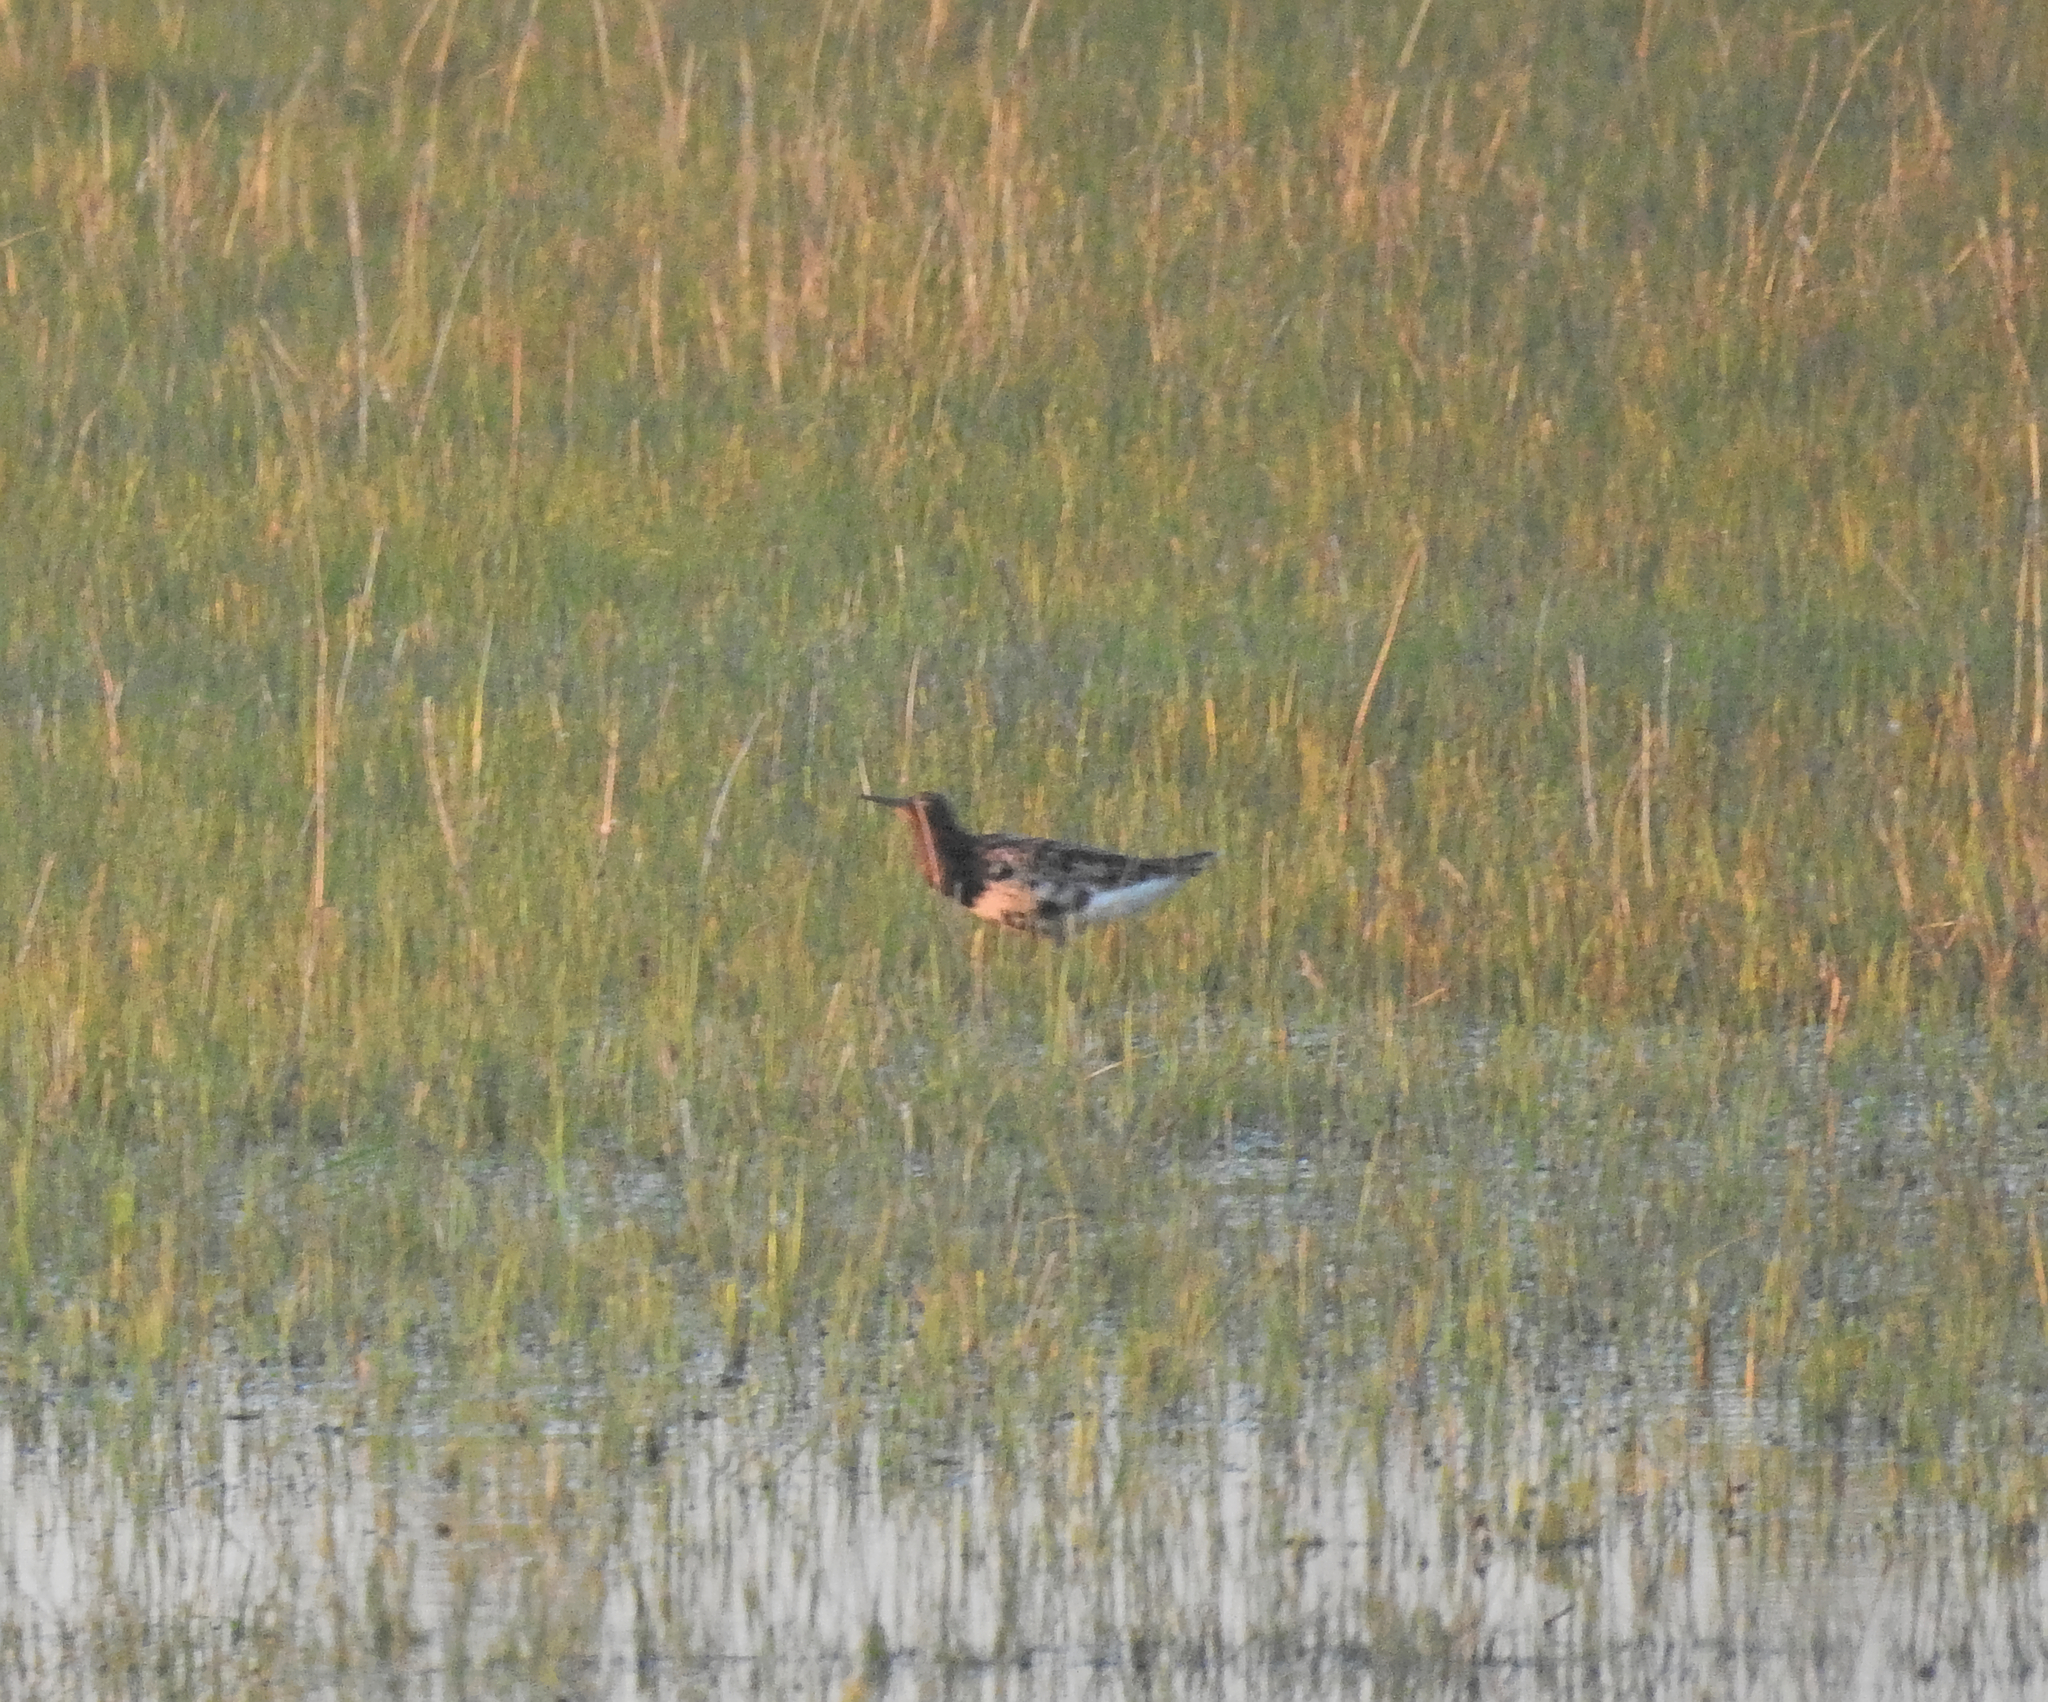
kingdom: Animalia
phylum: Chordata
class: Aves
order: Charadriiformes
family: Scolopacidae
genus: Calidris
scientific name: Calidris pugnax
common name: Ruff
